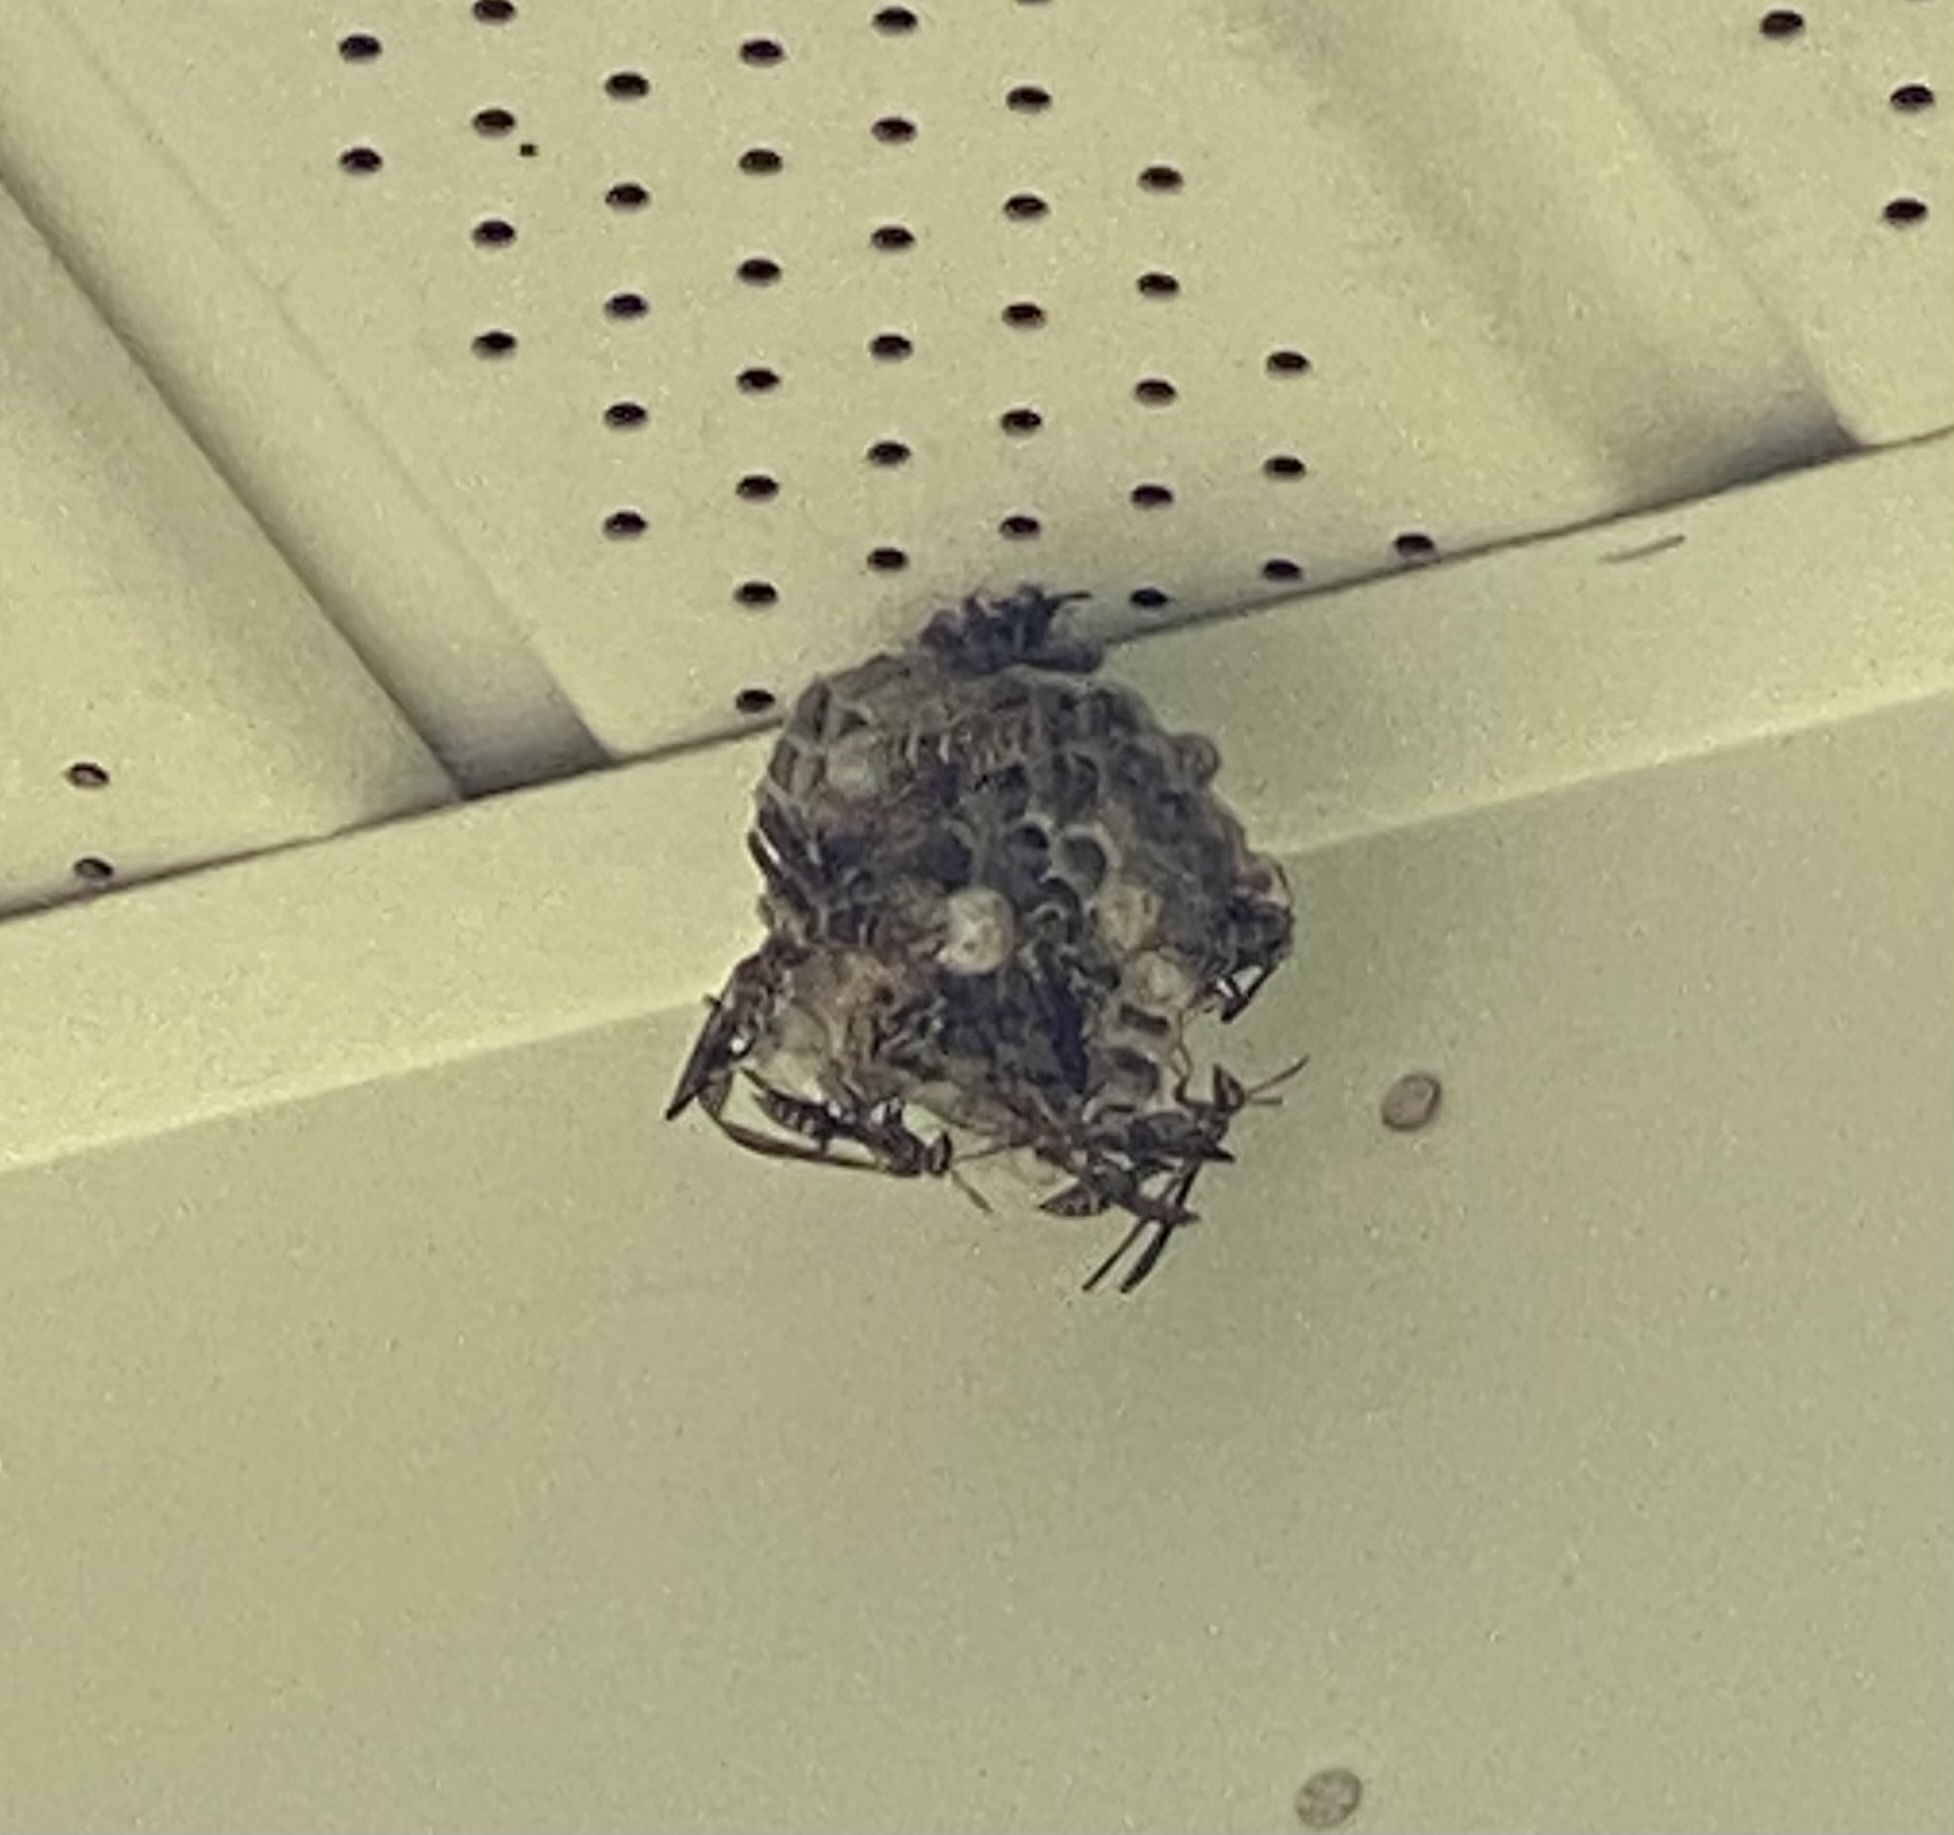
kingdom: Animalia
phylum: Arthropoda
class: Insecta
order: Hymenoptera
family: Eumenidae
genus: Polistes
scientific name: Polistes exclamans
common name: Paper wasp
